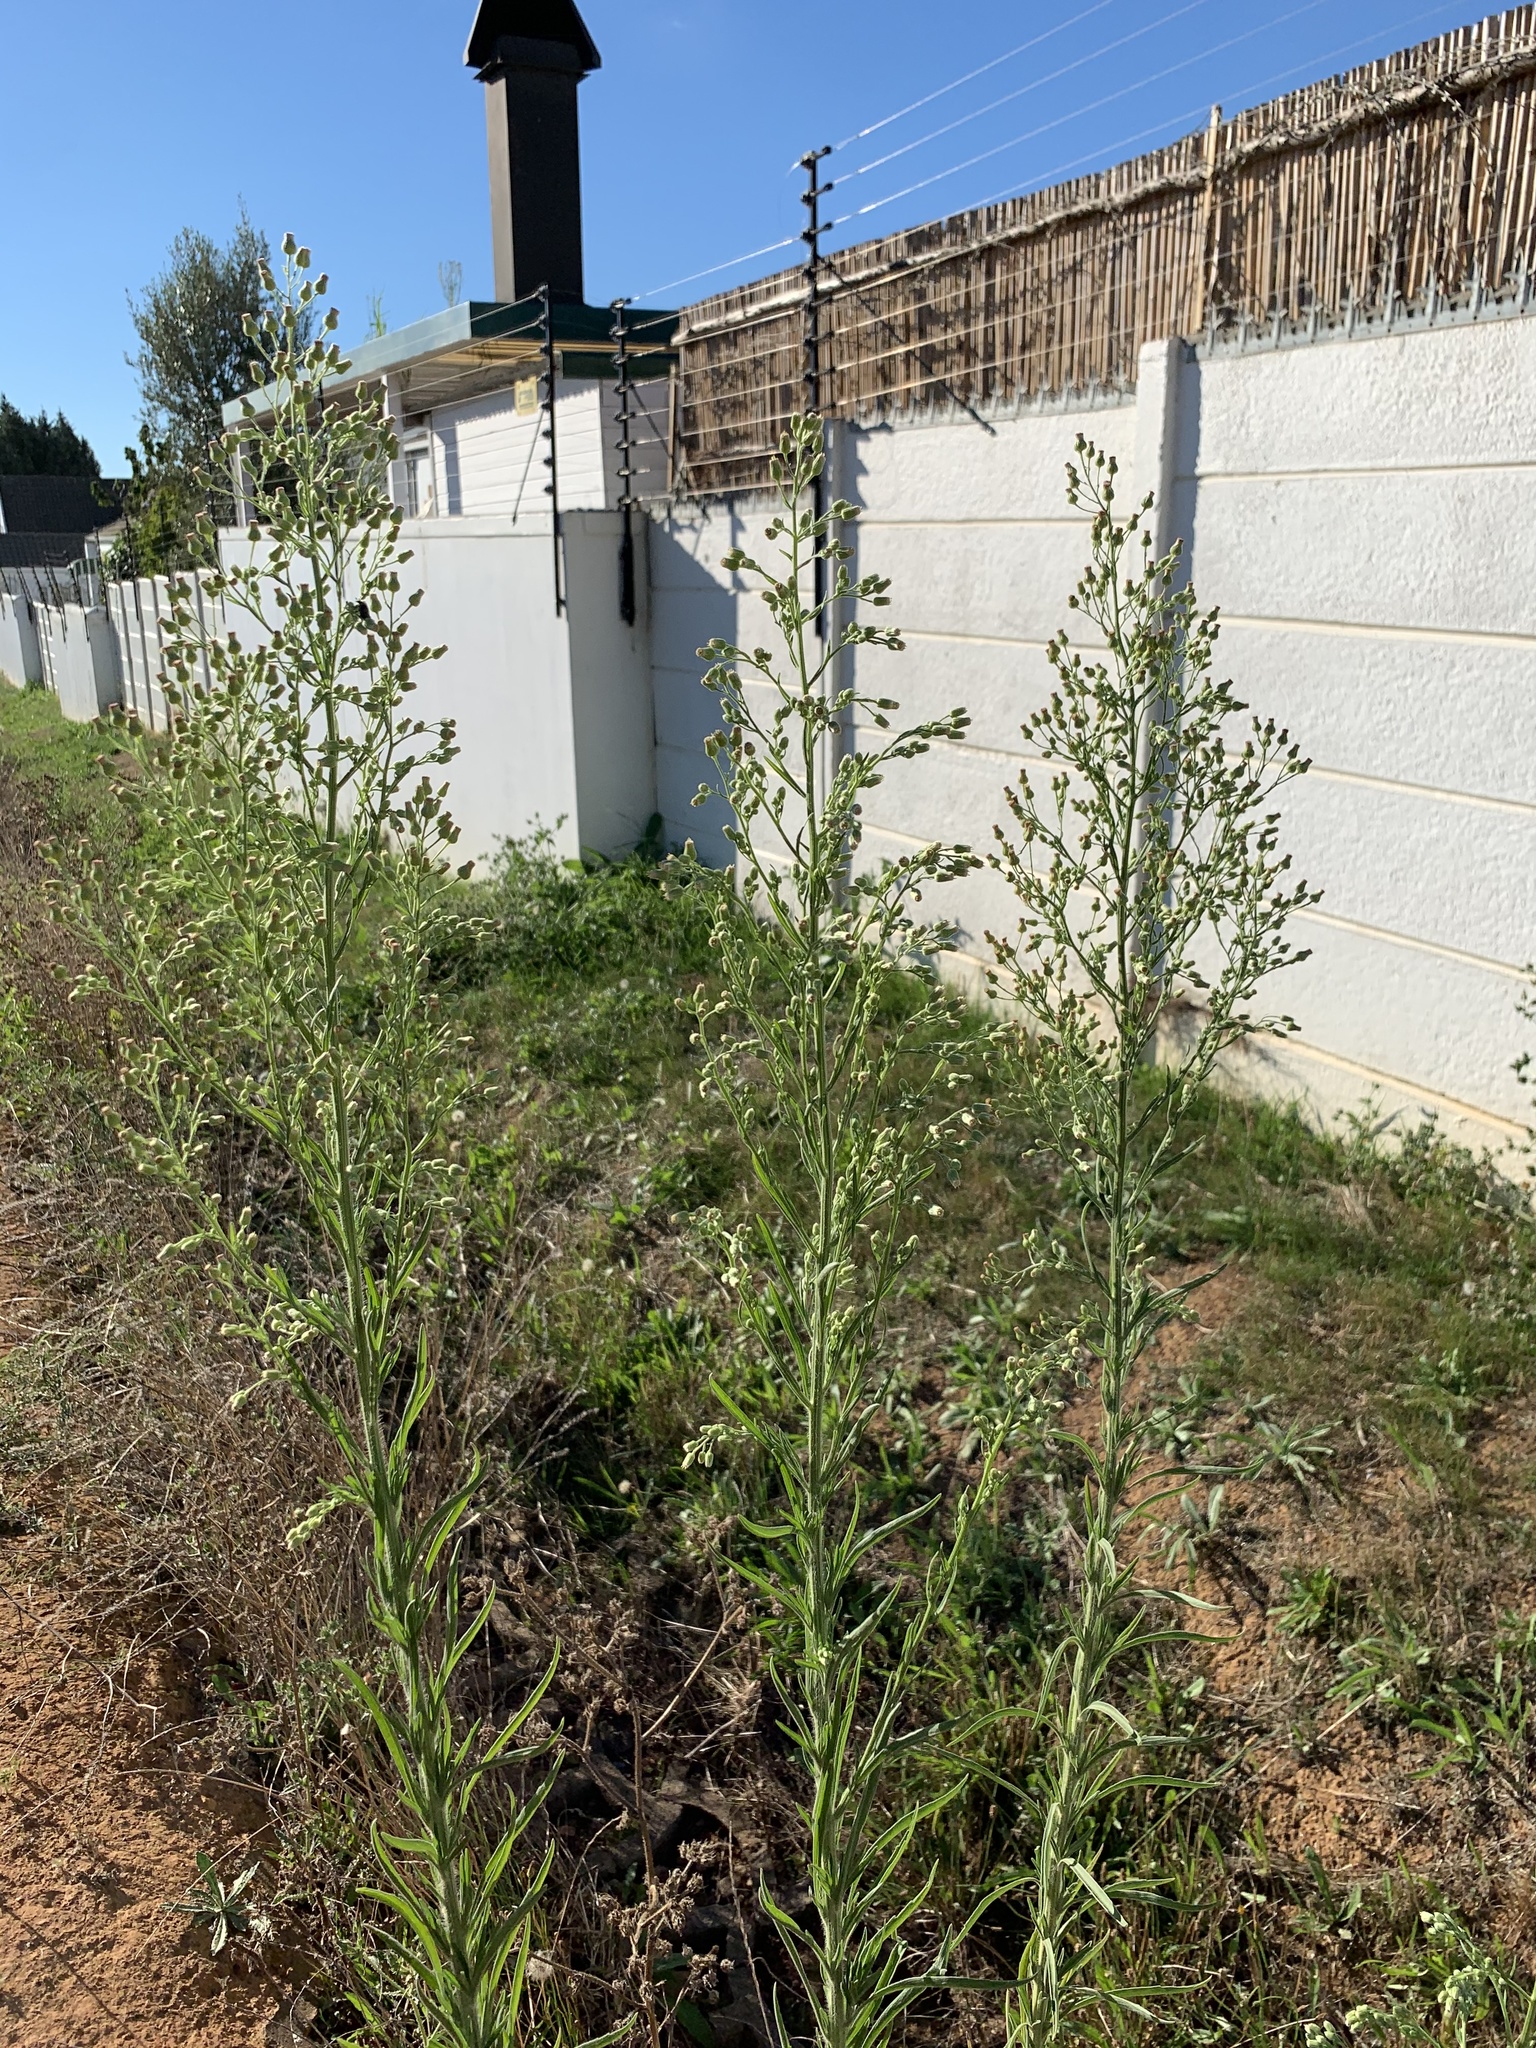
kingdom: Plantae
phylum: Tracheophyta
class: Magnoliopsida
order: Asterales
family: Asteraceae
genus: Erigeron
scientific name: Erigeron sumatrensis
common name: Daisy
